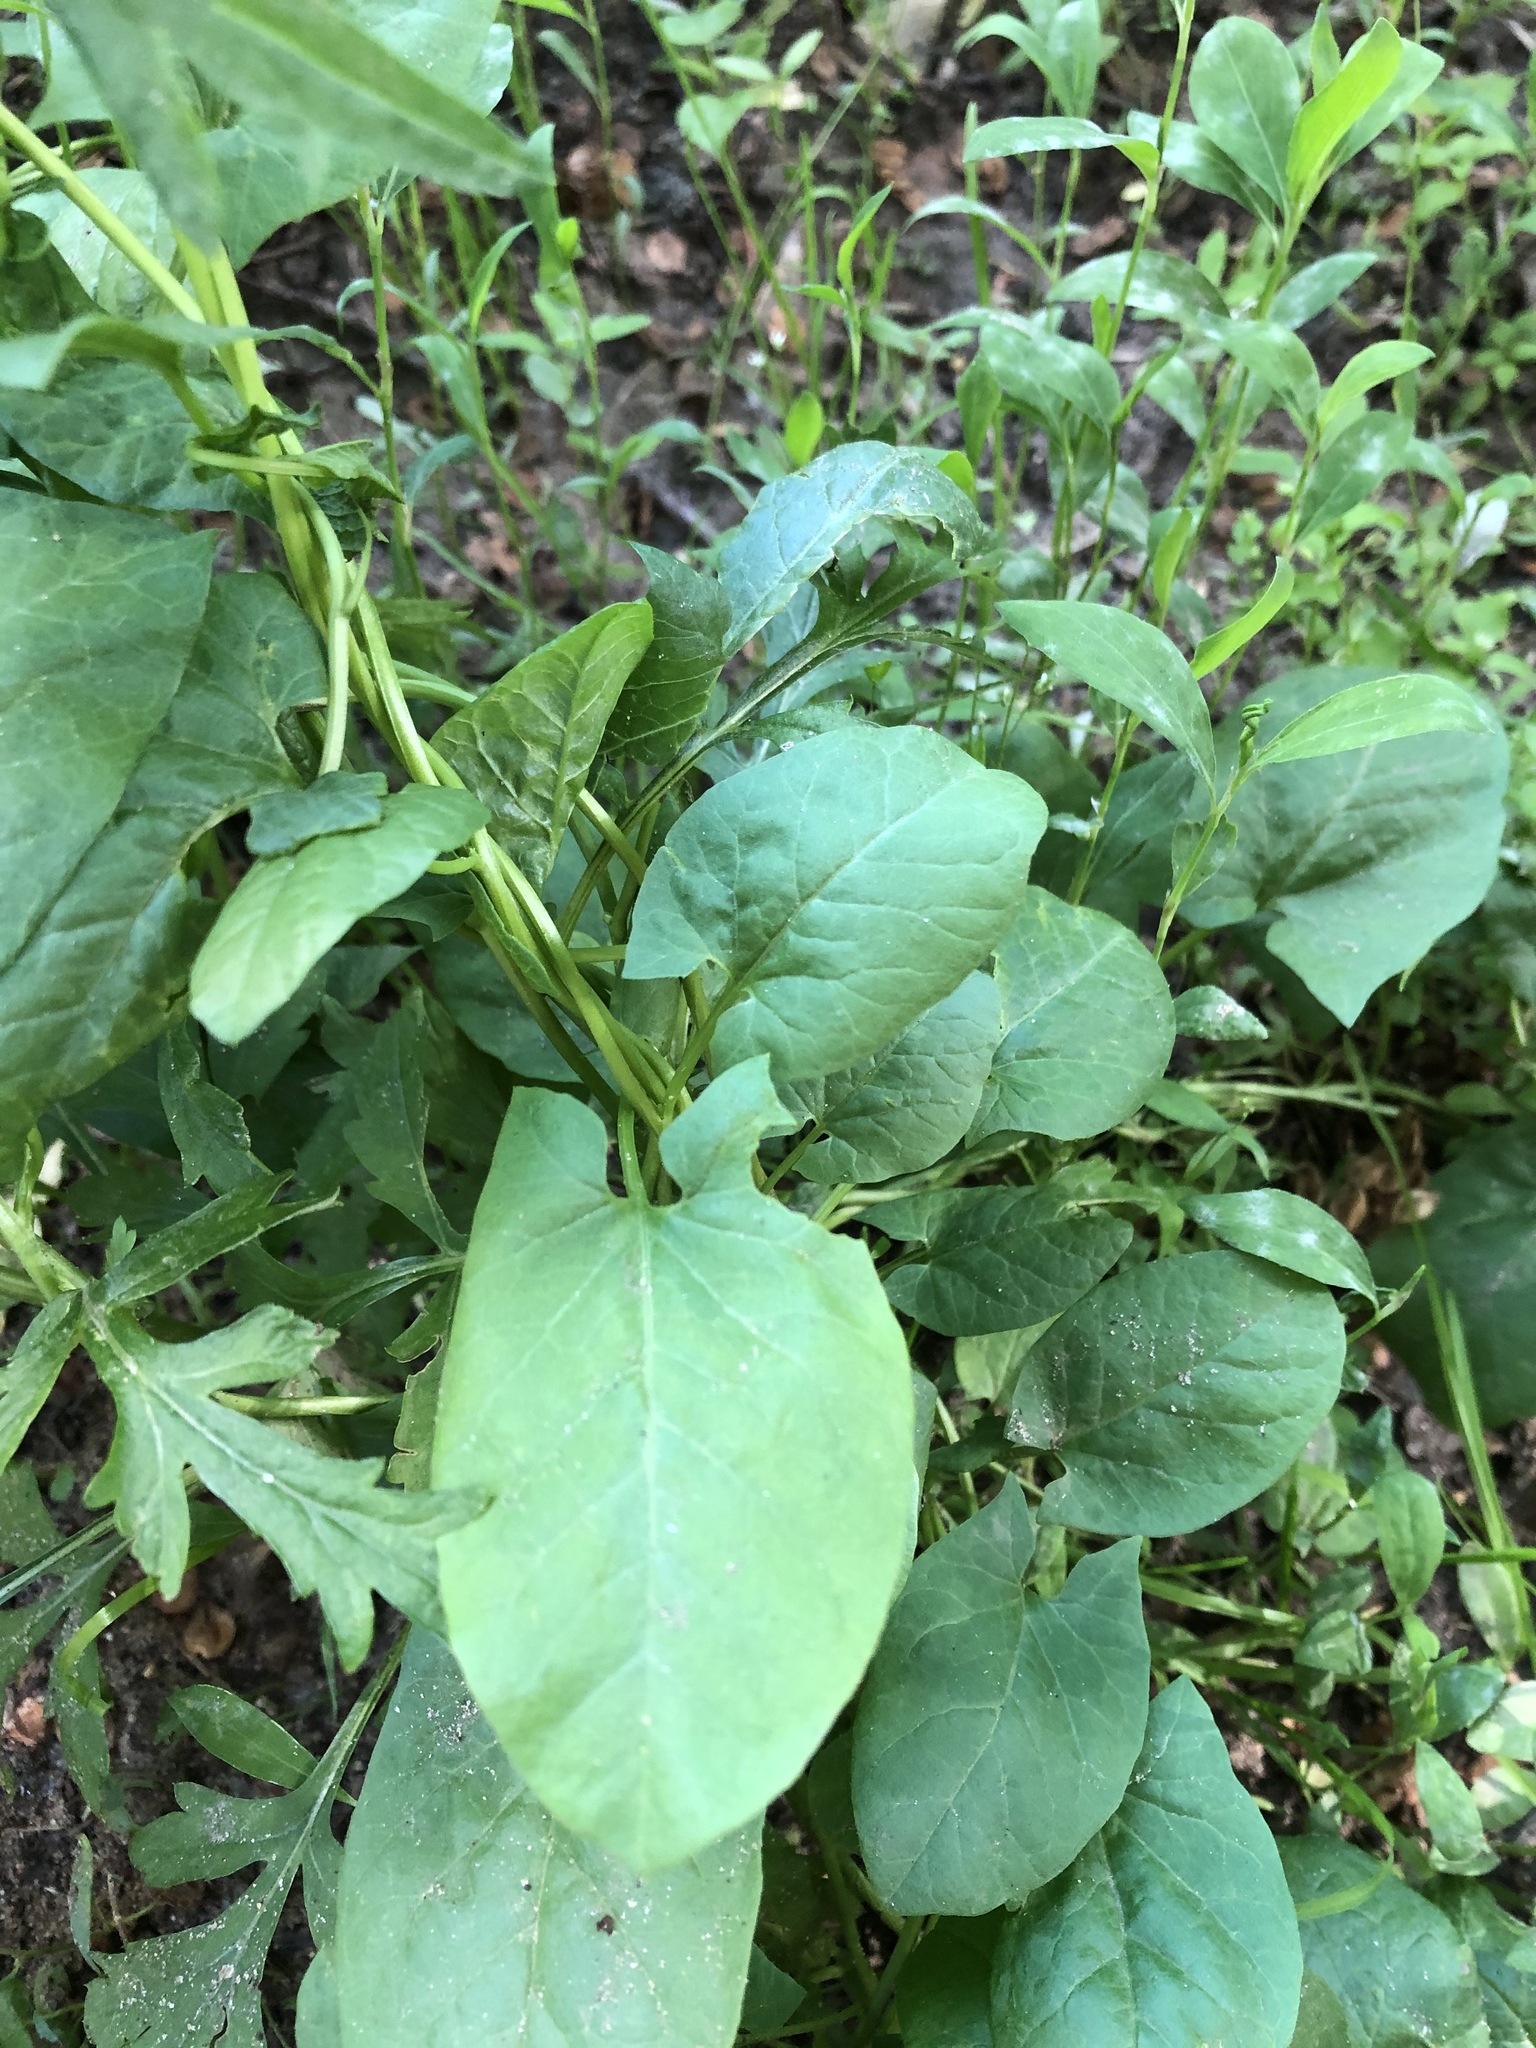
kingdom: Plantae
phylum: Tracheophyta
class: Magnoliopsida
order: Solanales
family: Convolvulaceae
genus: Calystegia
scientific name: Calystegia
